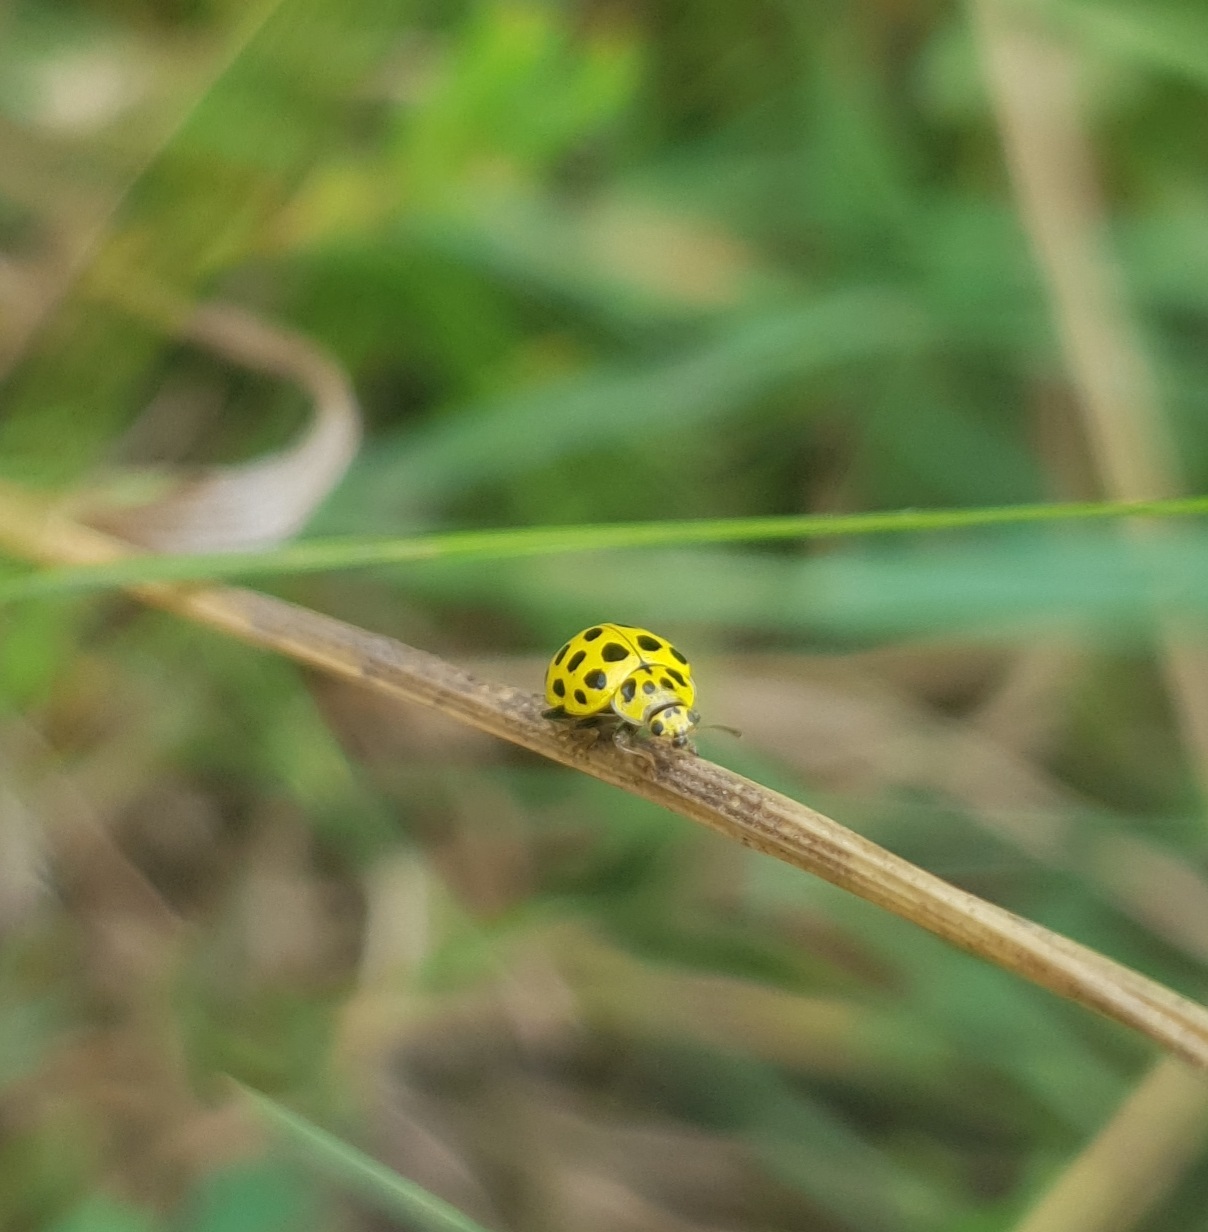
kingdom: Animalia
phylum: Arthropoda
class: Insecta
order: Coleoptera
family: Coccinellidae
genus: Psyllobora
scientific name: Psyllobora vigintiduopunctata
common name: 22-spot ladybird
